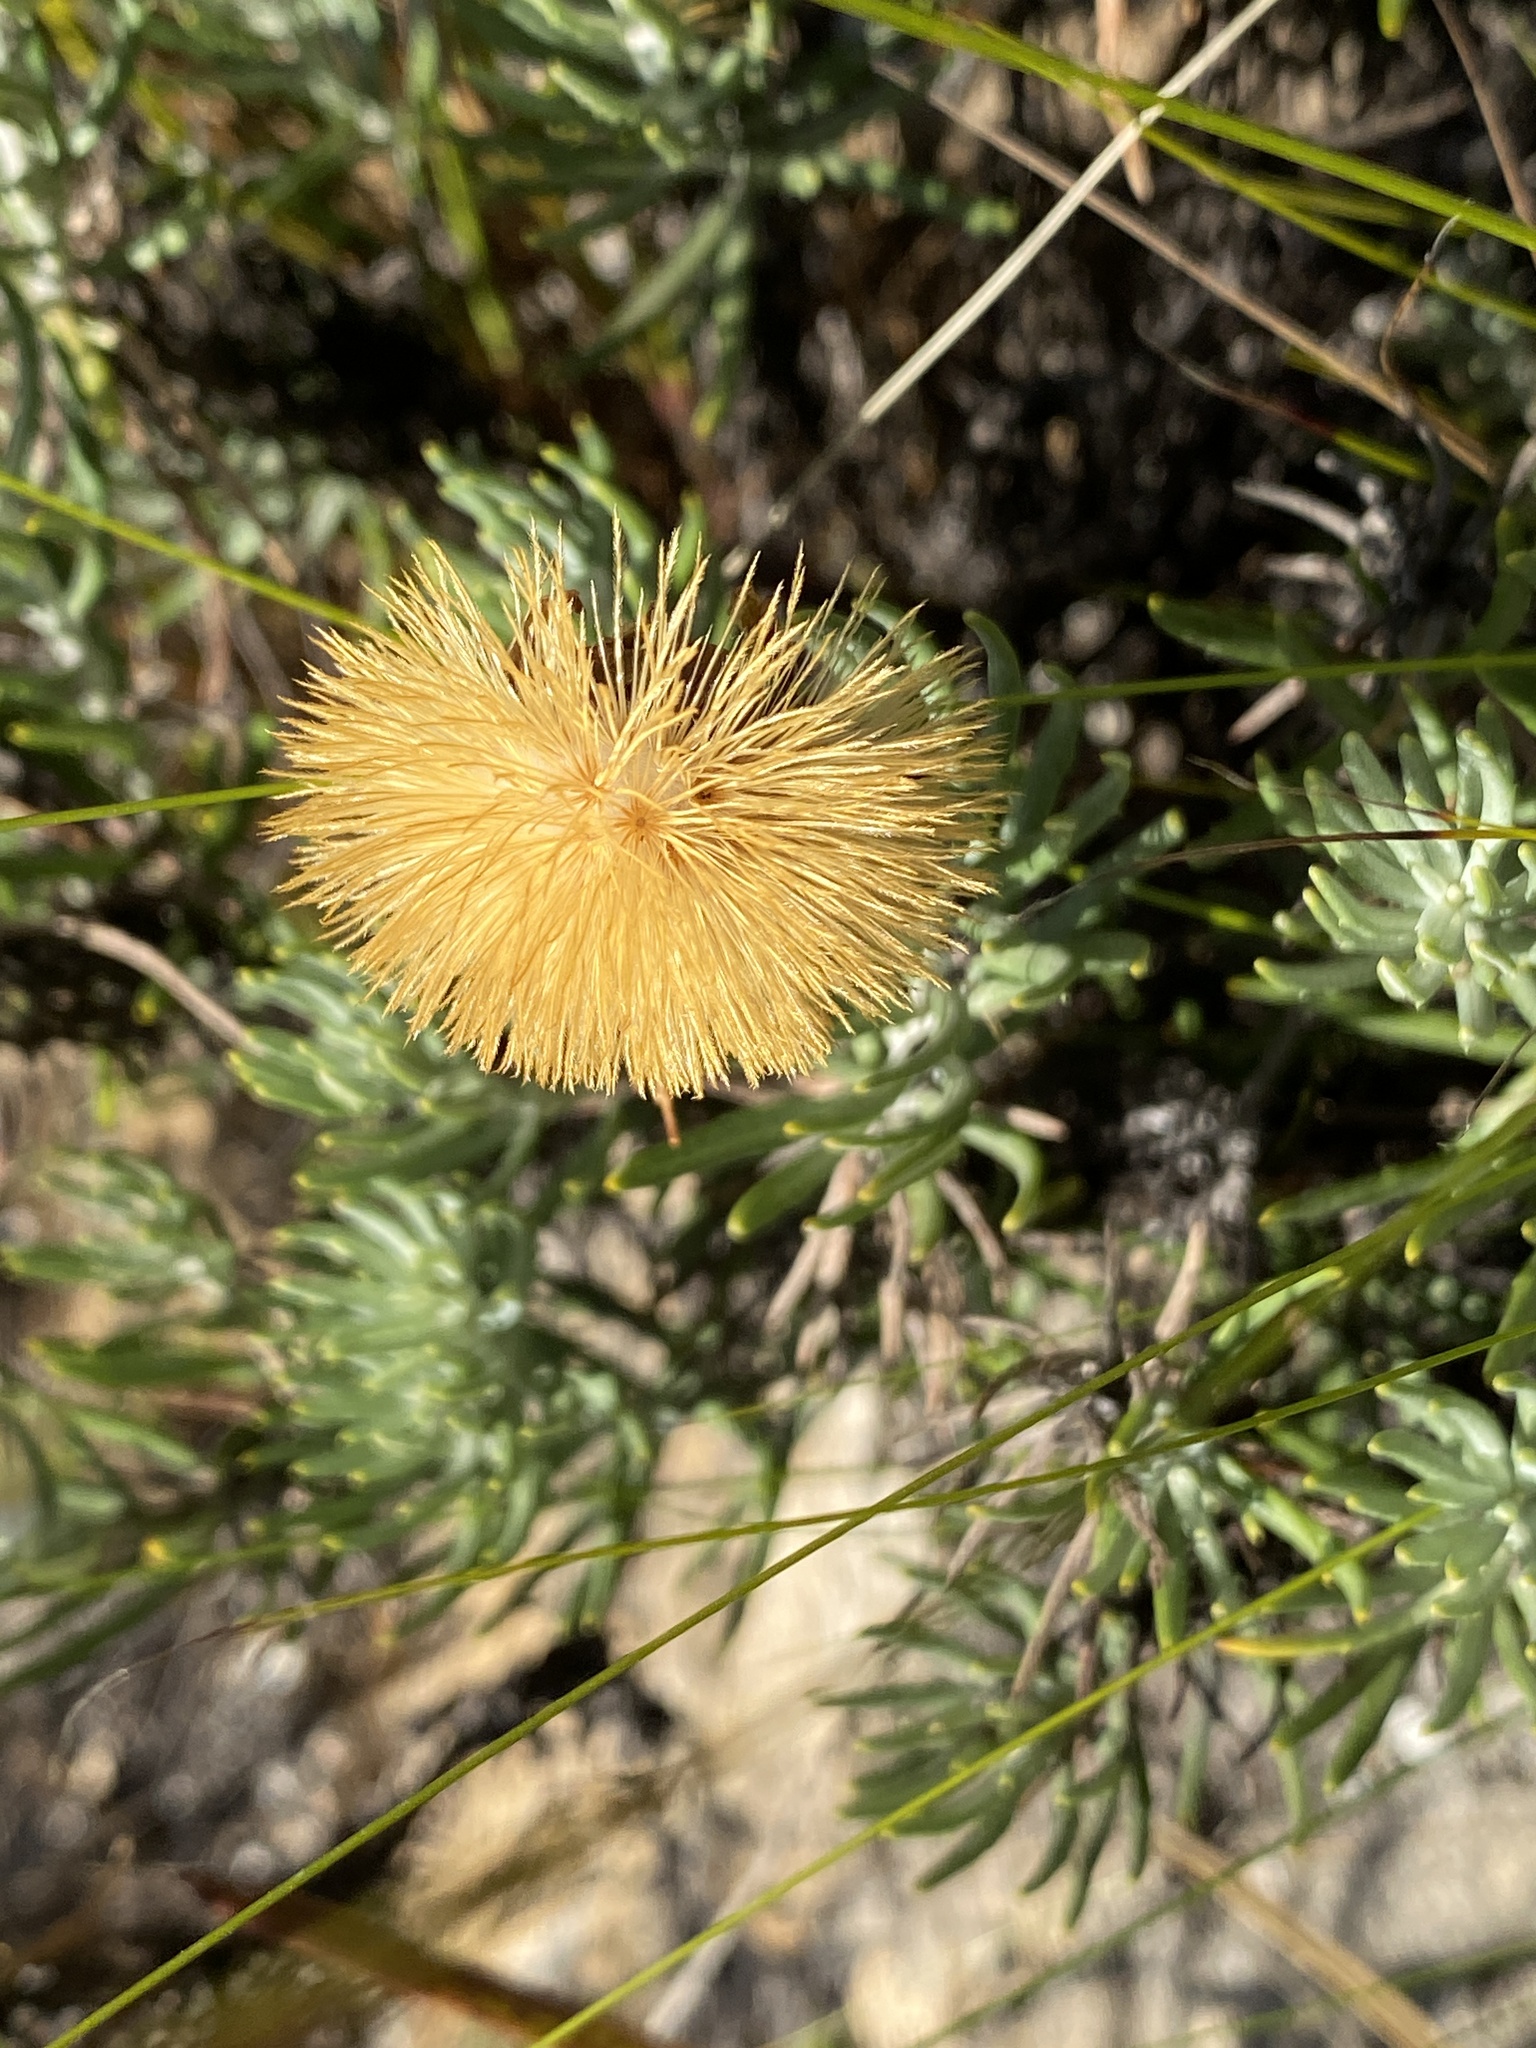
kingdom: Plantae
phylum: Tracheophyta
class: Magnoliopsida
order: Asterales
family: Asteraceae
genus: Heterolepis
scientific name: Heterolepis aliena
